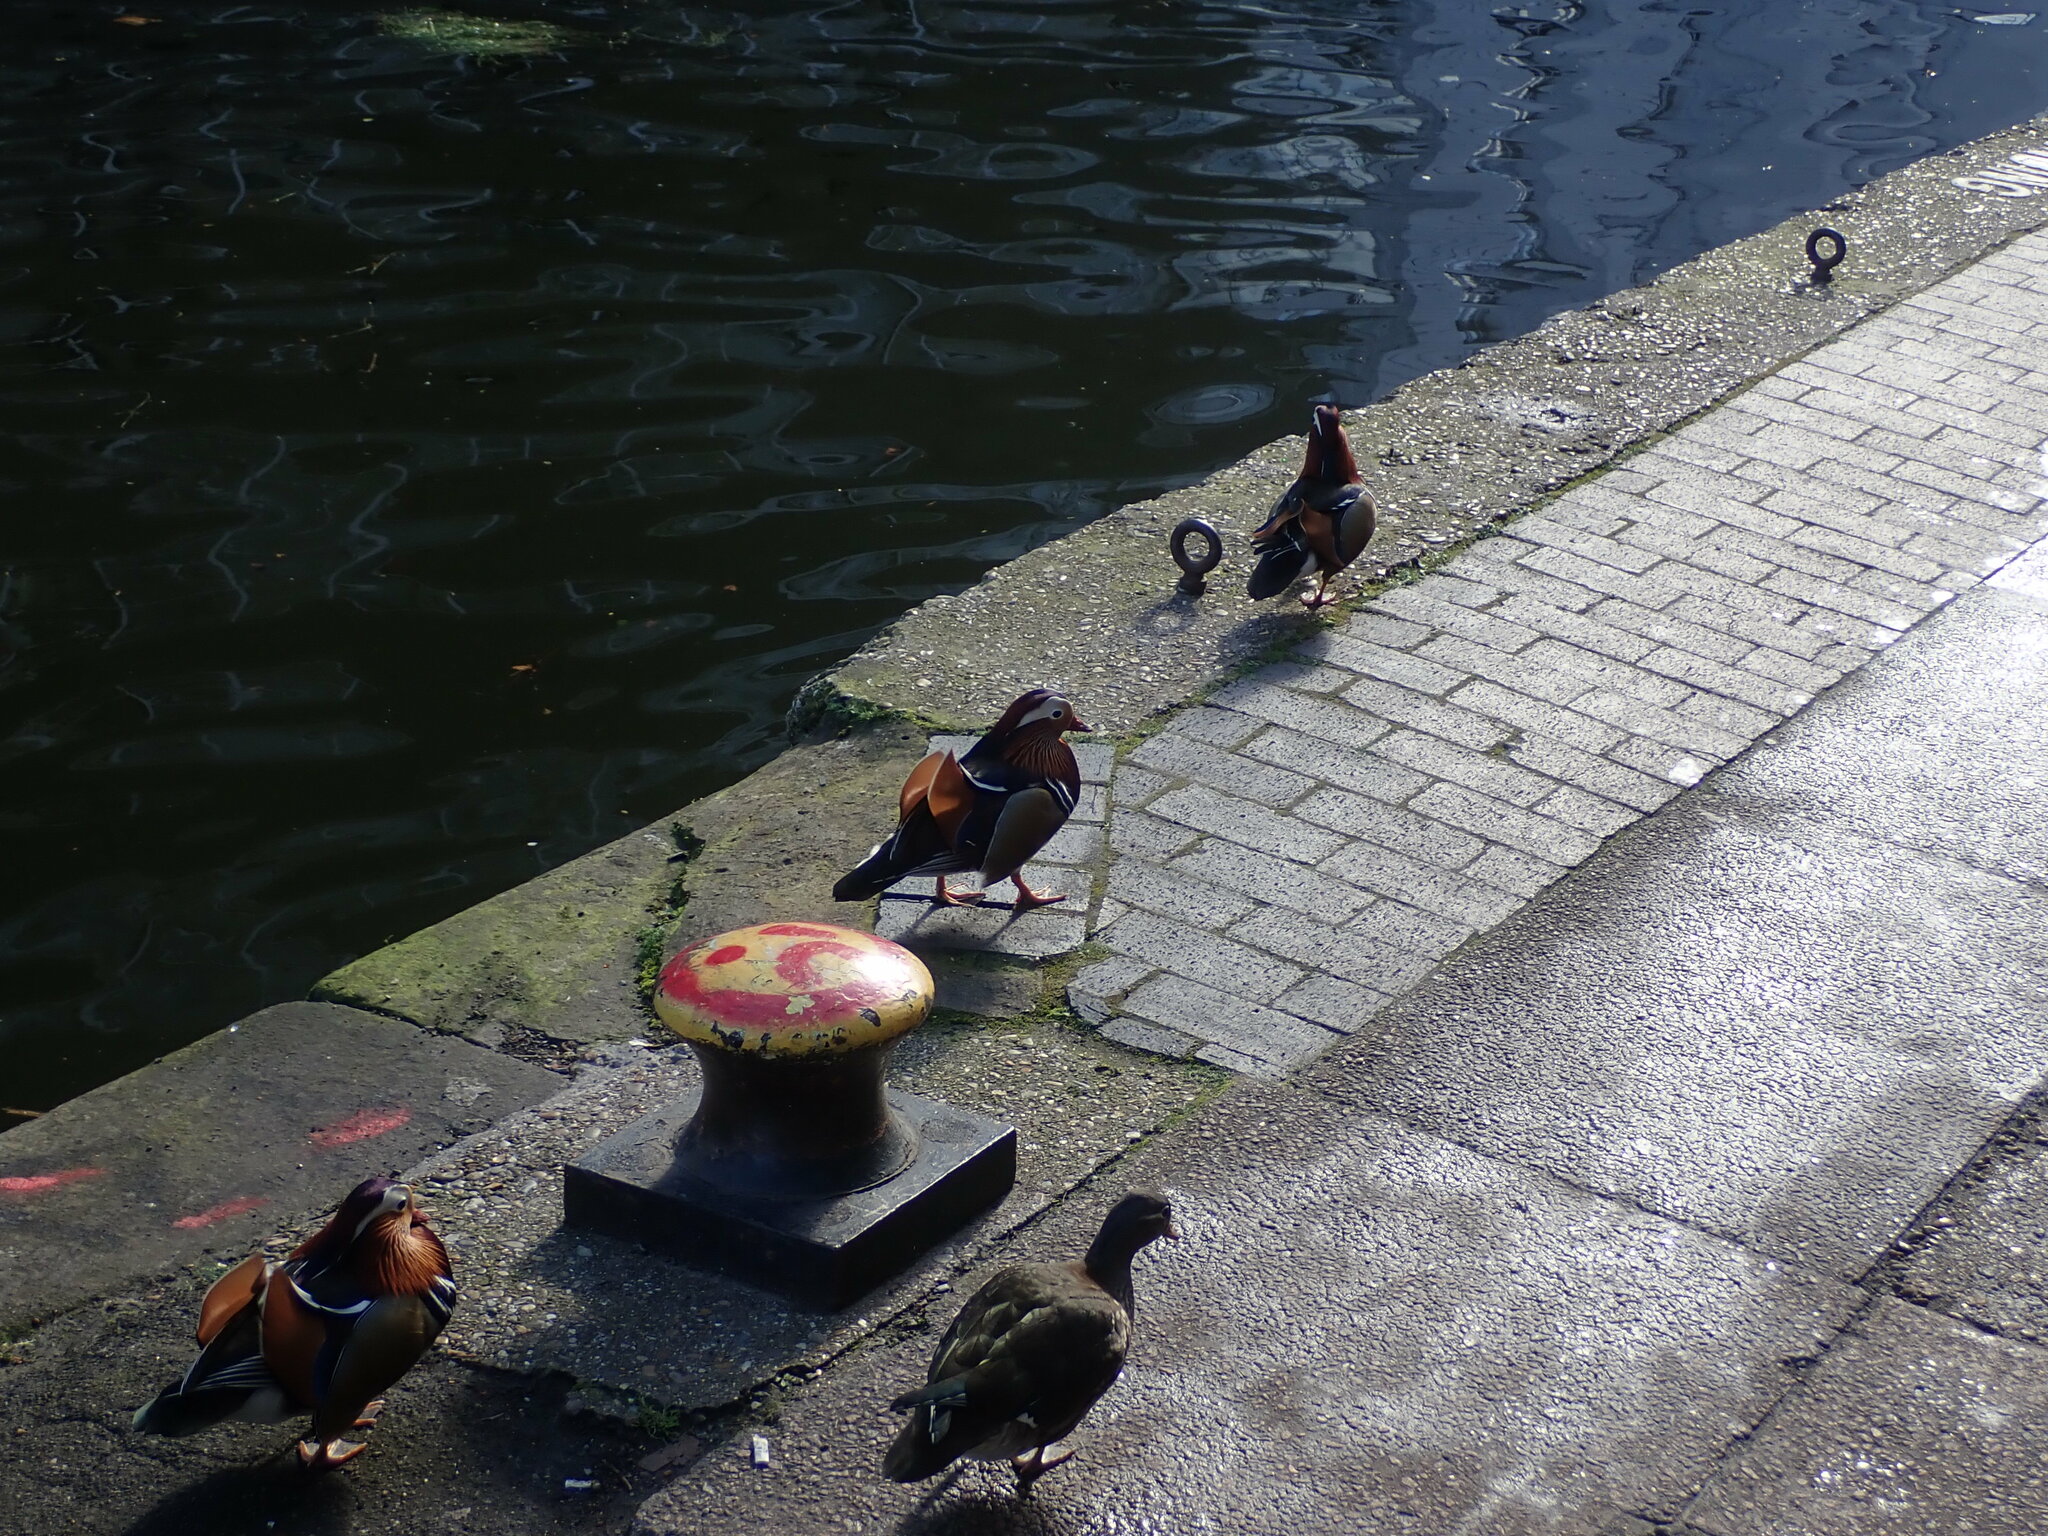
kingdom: Animalia
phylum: Chordata
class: Aves
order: Anseriformes
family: Anatidae
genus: Aix
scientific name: Aix galericulata
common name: Mandarin duck
